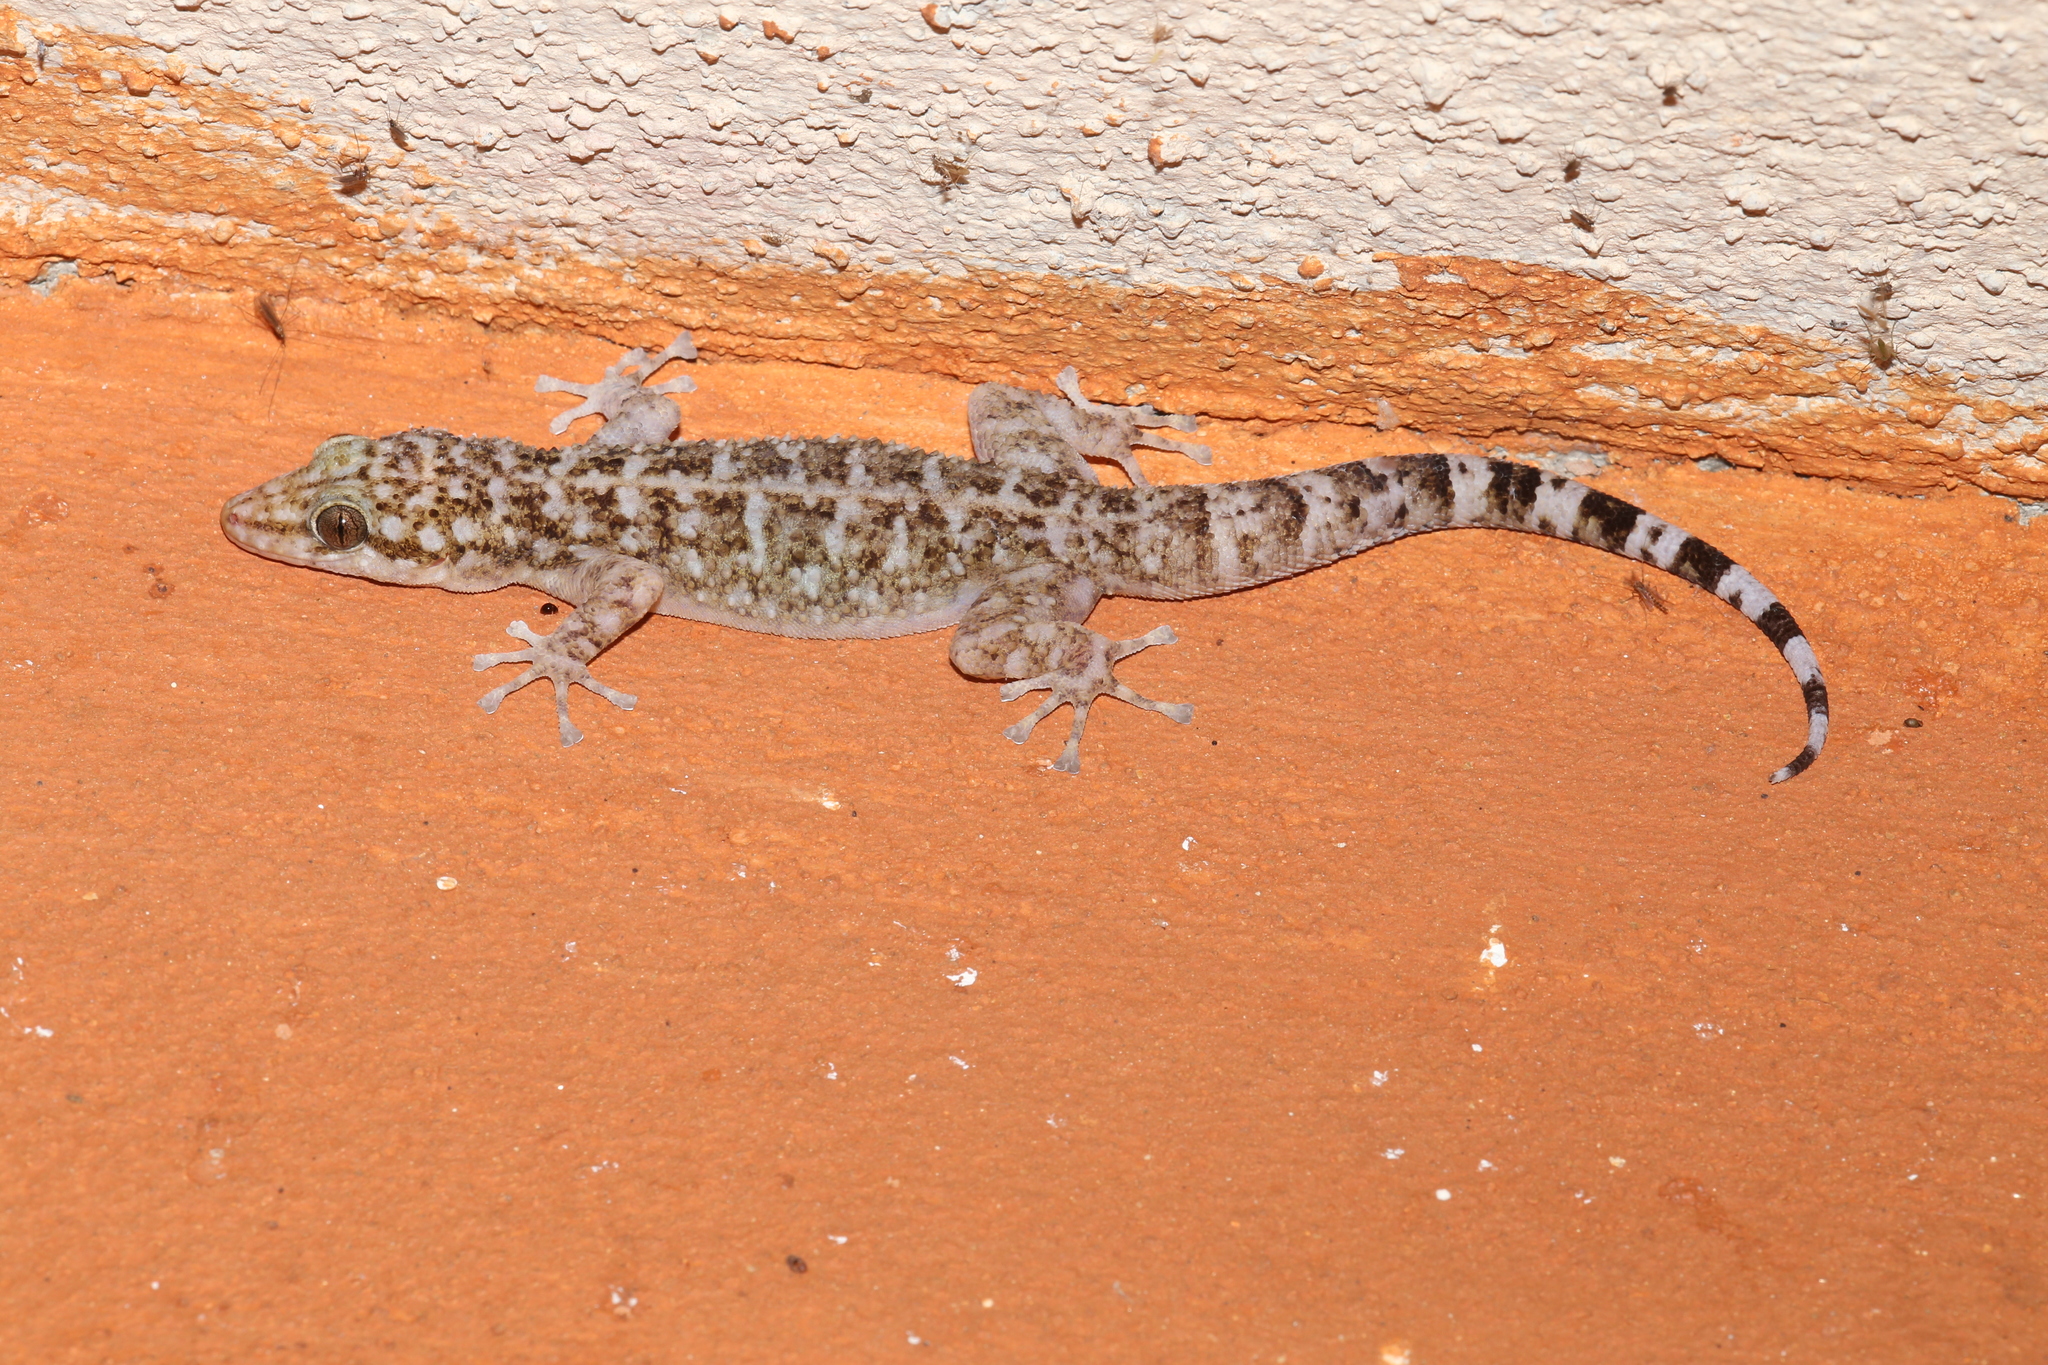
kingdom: Animalia
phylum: Chordata
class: Squamata
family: Phyllodactylidae
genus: Phyllodactylus
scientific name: Phyllodactylus tuberculosus
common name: Yellowbelly  gecko
